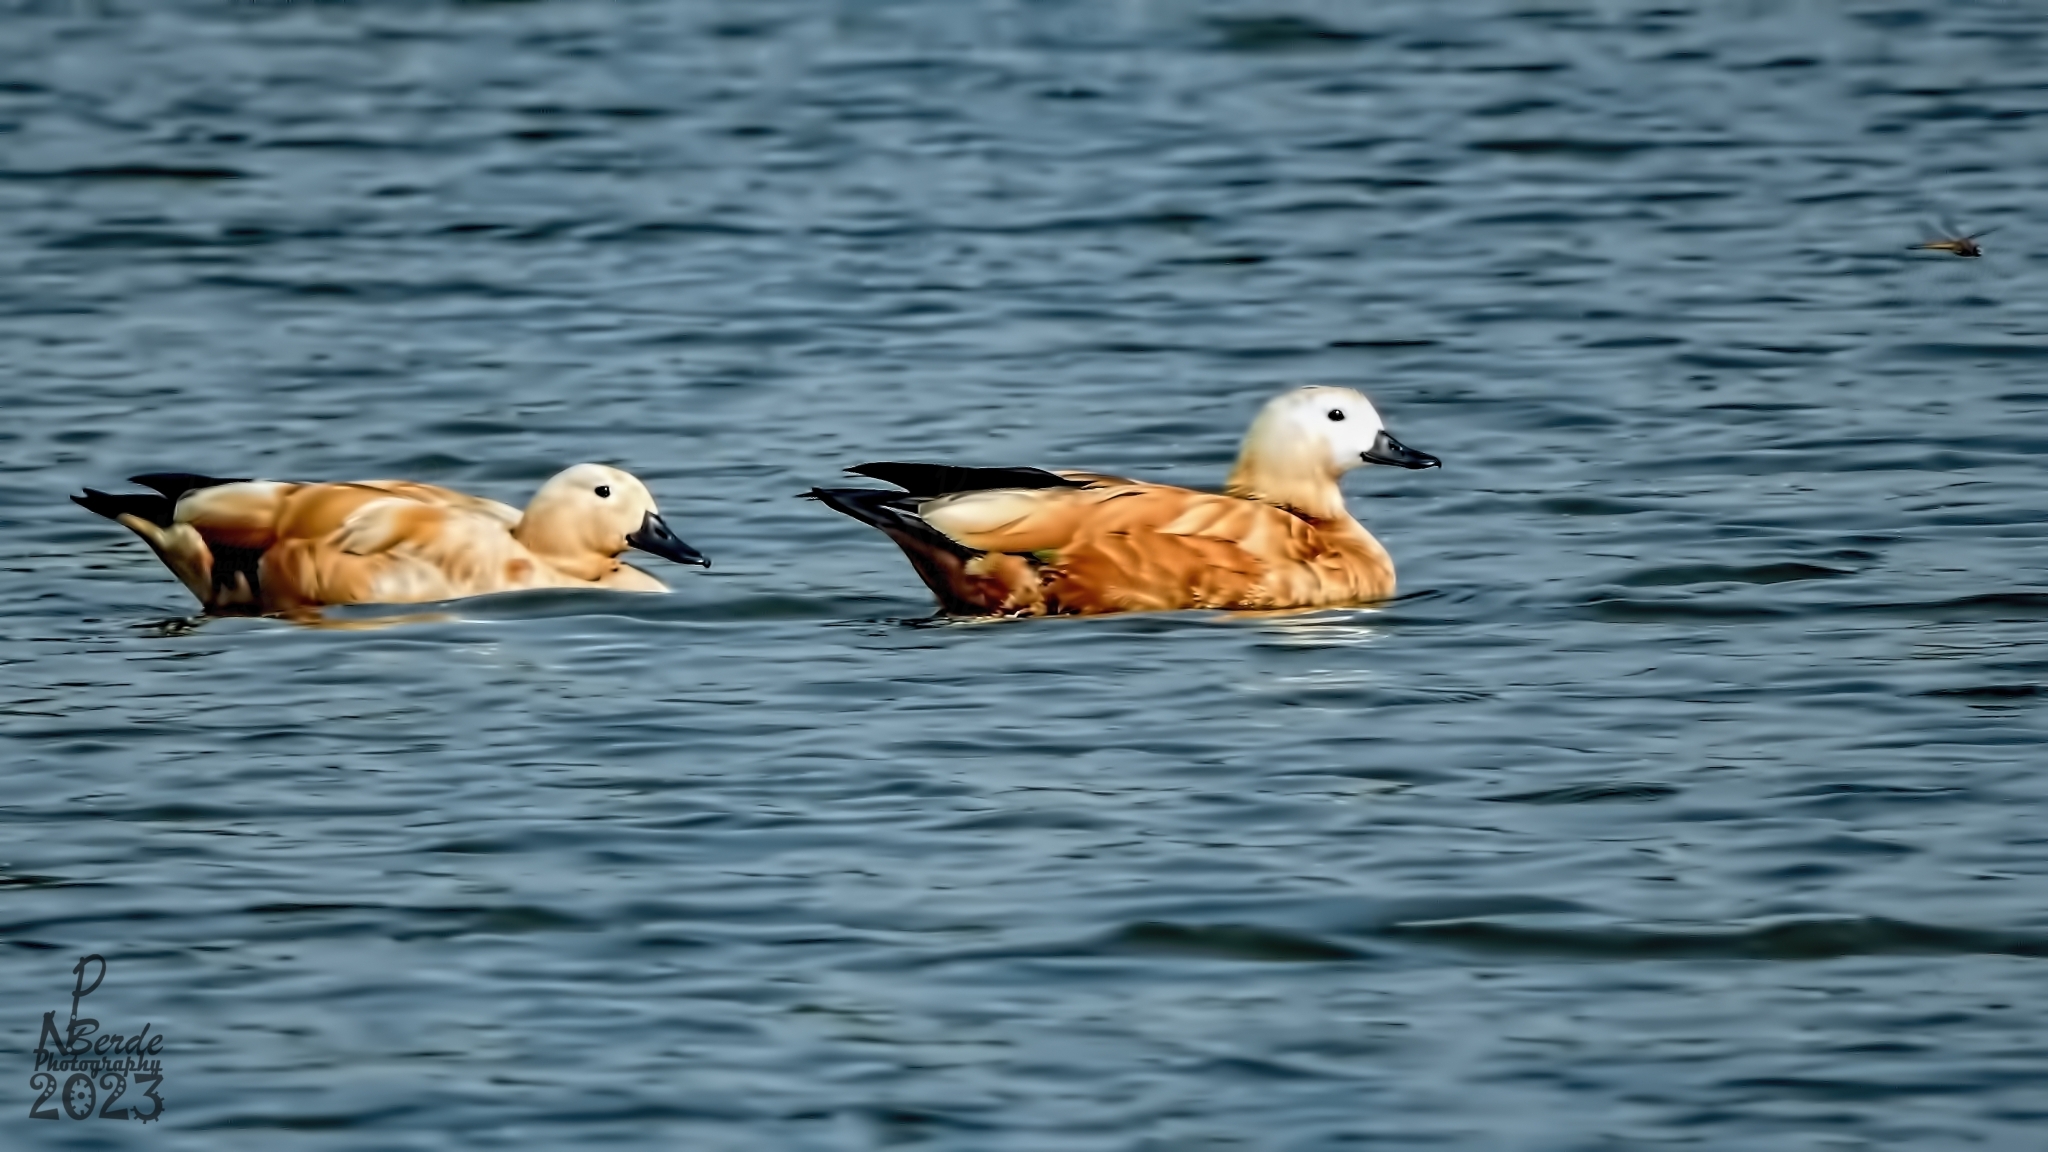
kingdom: Animalia
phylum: Chordata
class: Aves
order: Anseriformes
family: Anatidae
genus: Tadorna
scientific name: Tadorna ferruginea
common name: Ruddy shelduck
